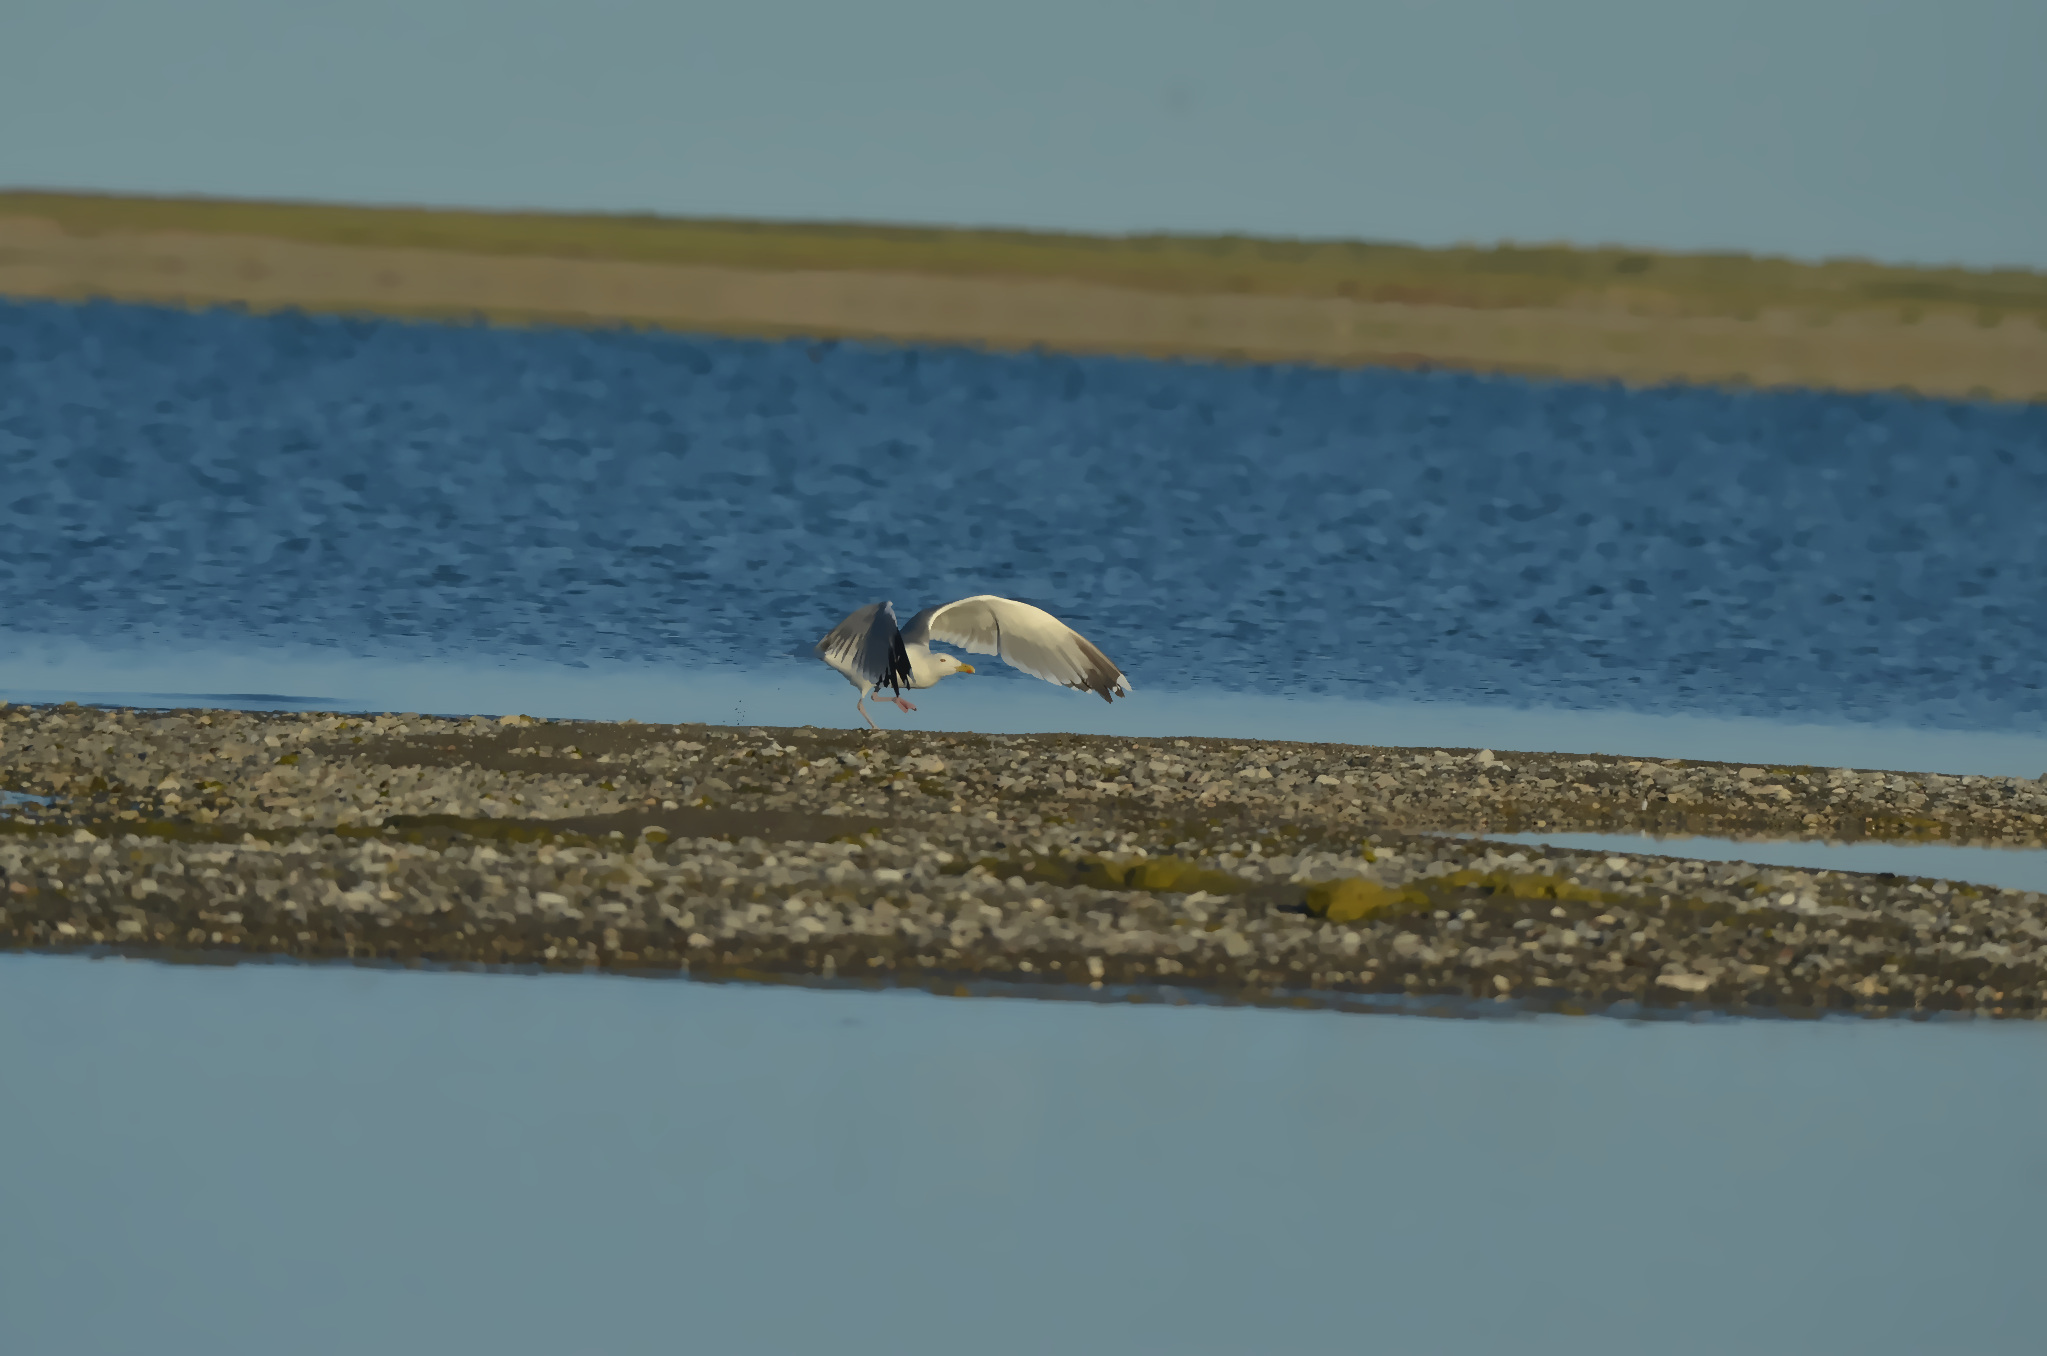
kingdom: Animalia
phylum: Chordata
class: Aves
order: Charadriiformes
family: Laridae
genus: Larus
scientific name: Larus argentatus
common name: Herring gull
